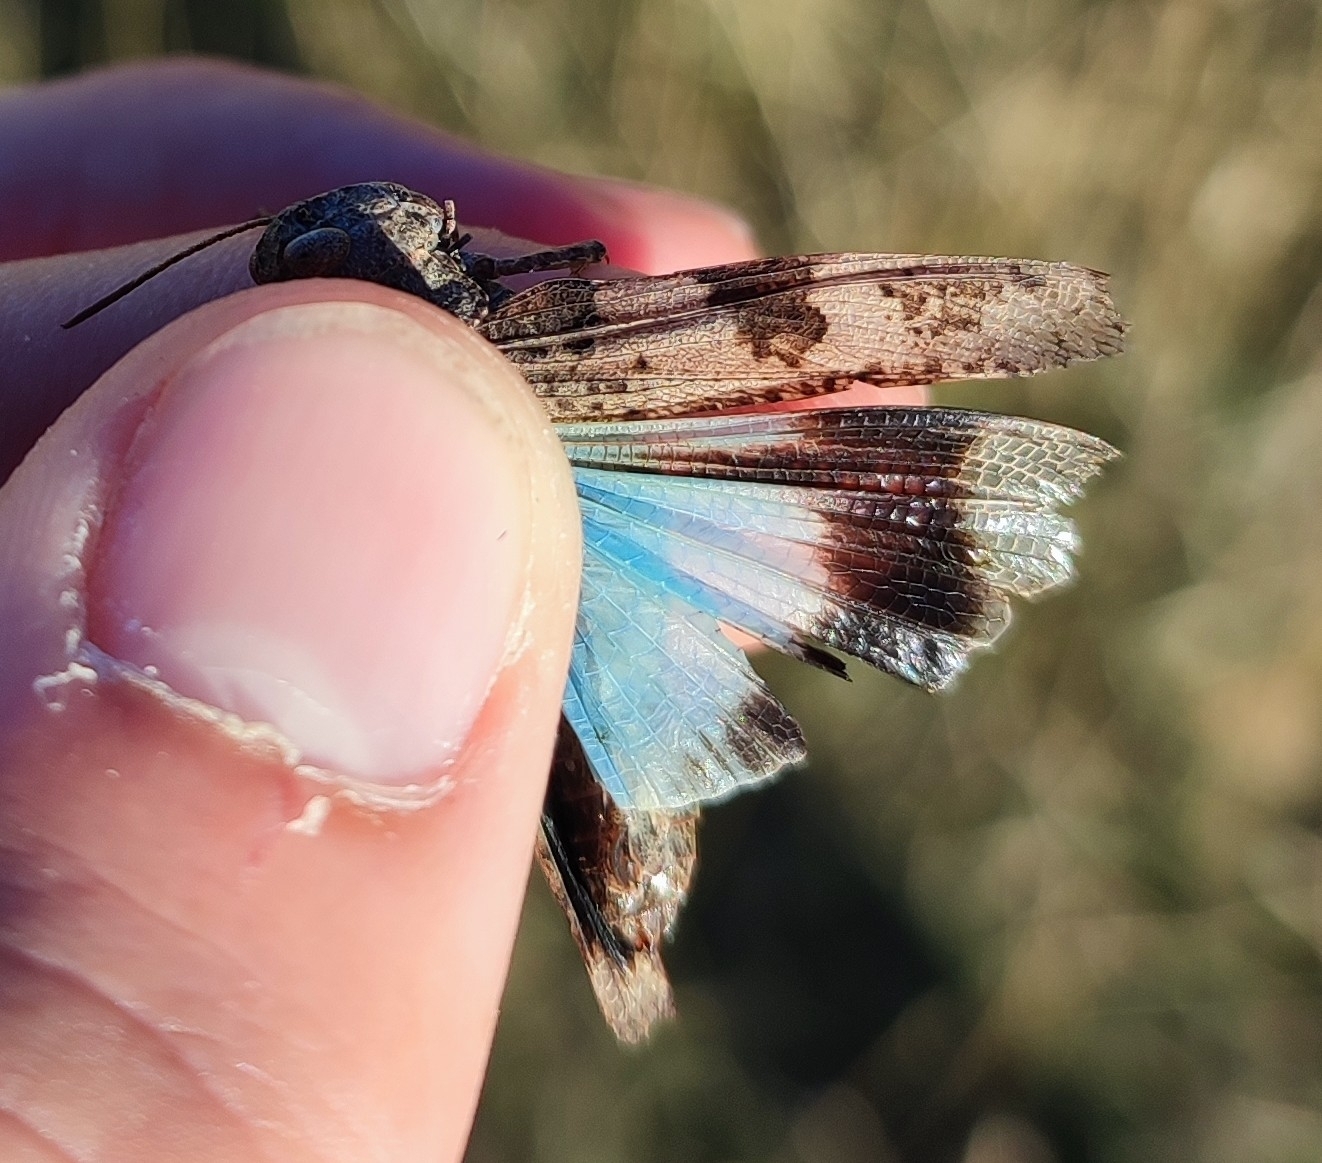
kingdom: Animalia
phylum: Arthropoda
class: Insecta
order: Orthoptera
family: Acrididae
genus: Oedipoda
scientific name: Oedipoda caerulescens
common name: Blue-winged grasshopper
